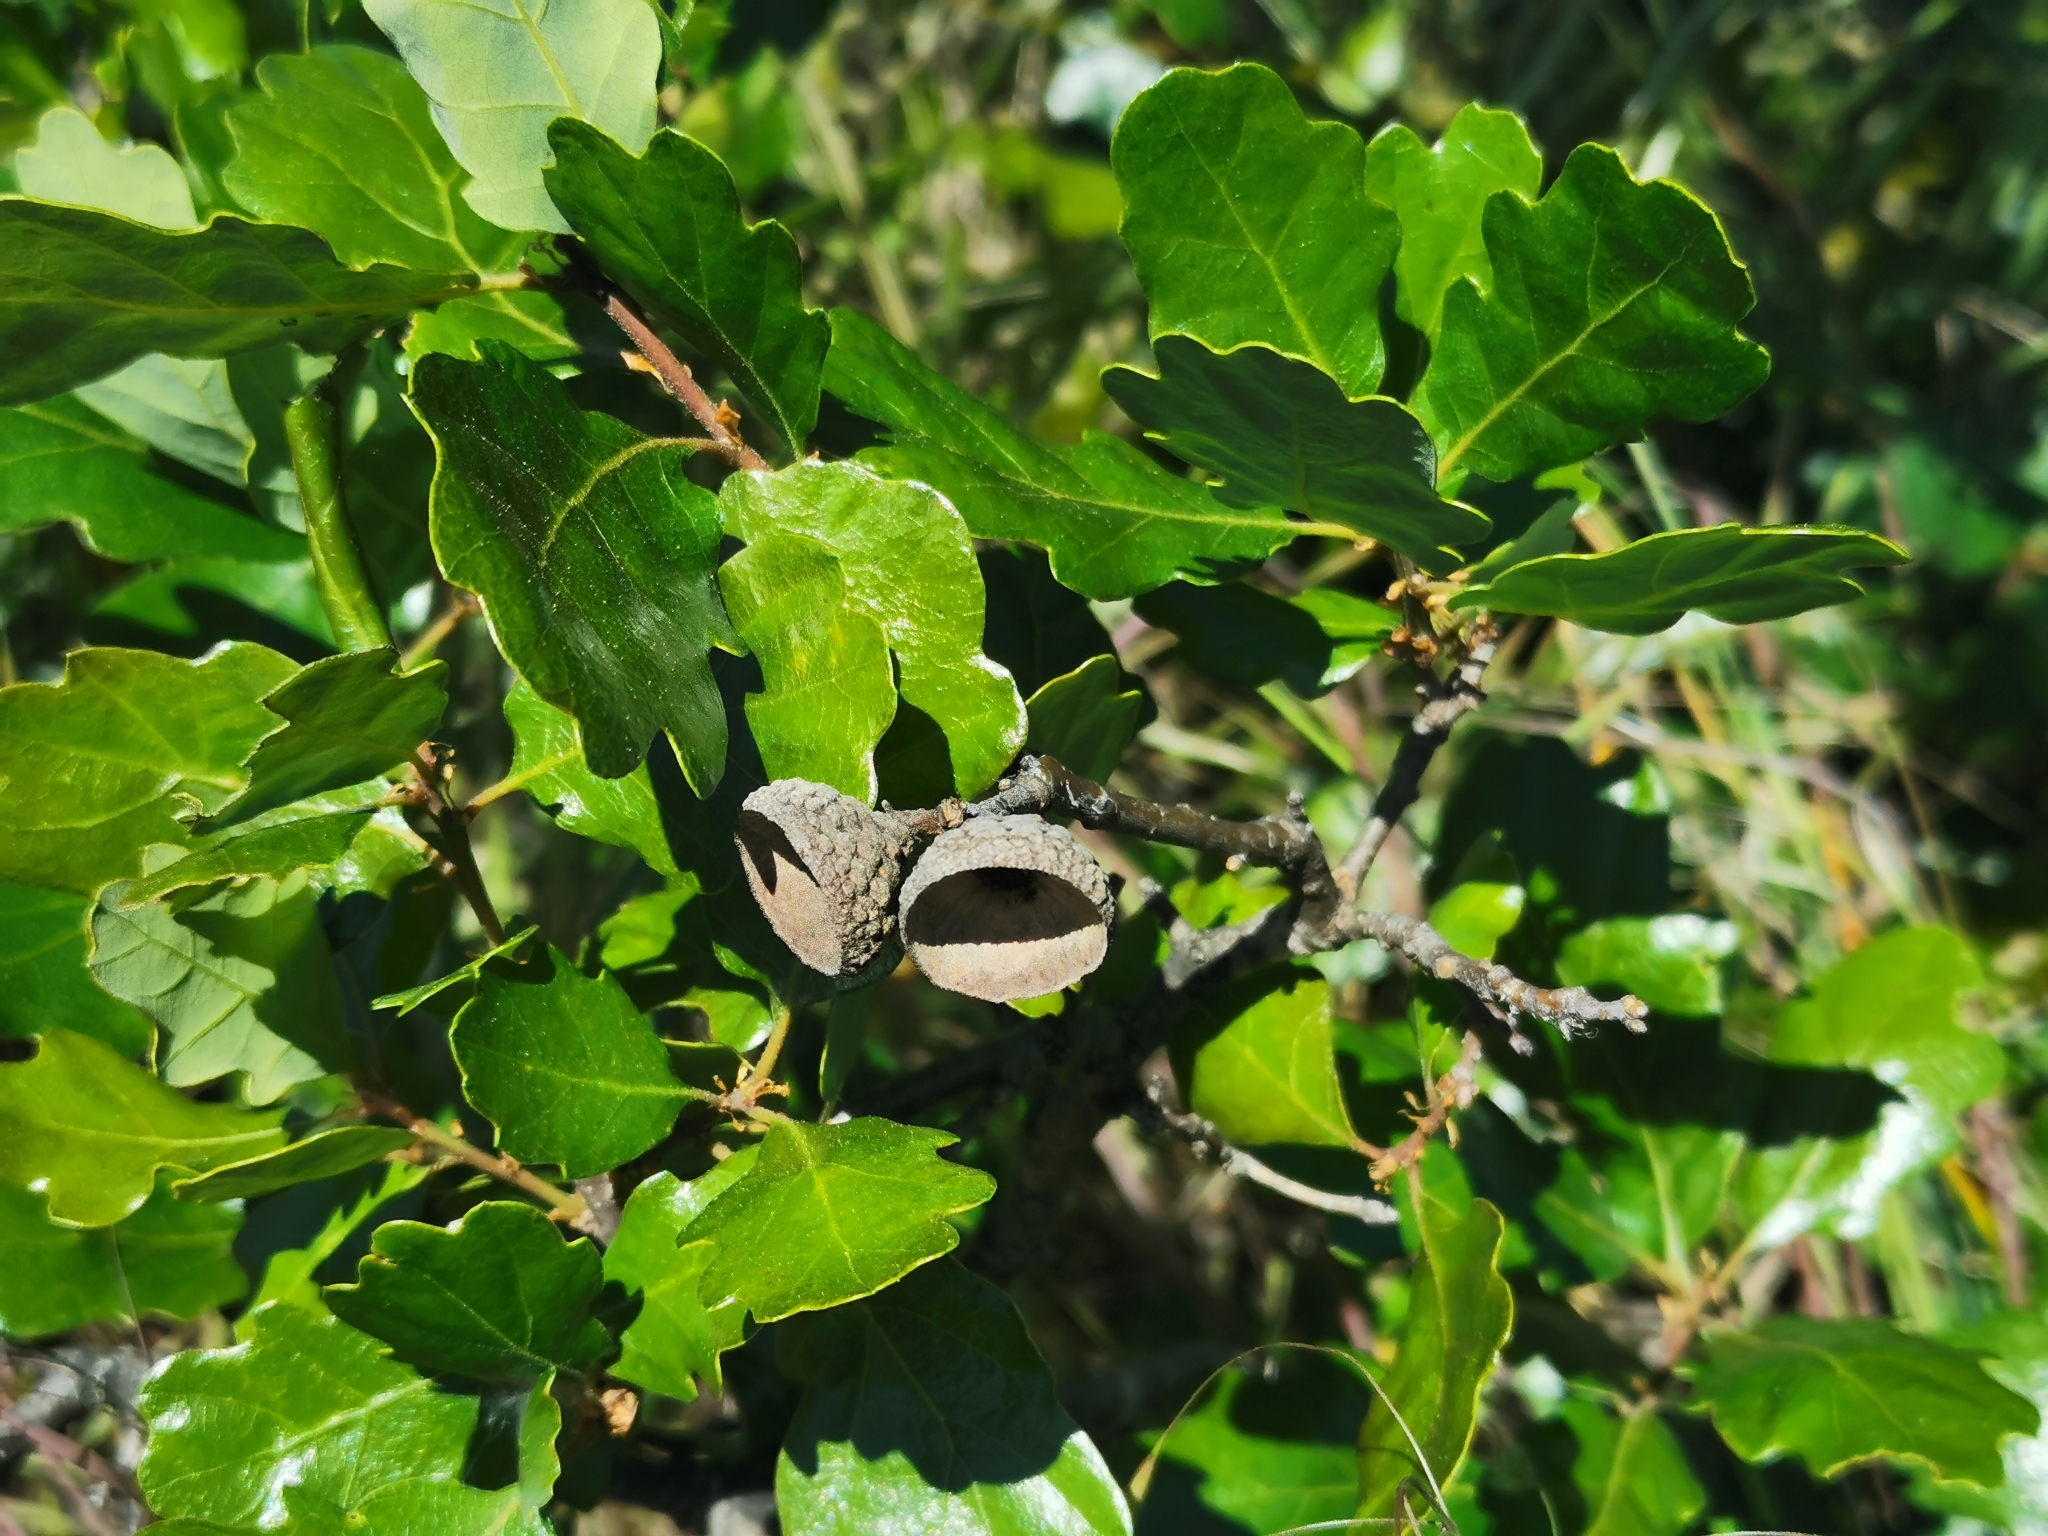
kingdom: Plantae
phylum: Tracheophyta
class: Magnoliopsida
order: Fagales
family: Fagaceae
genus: Quercus
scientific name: Quercus garryana
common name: Garry oak
